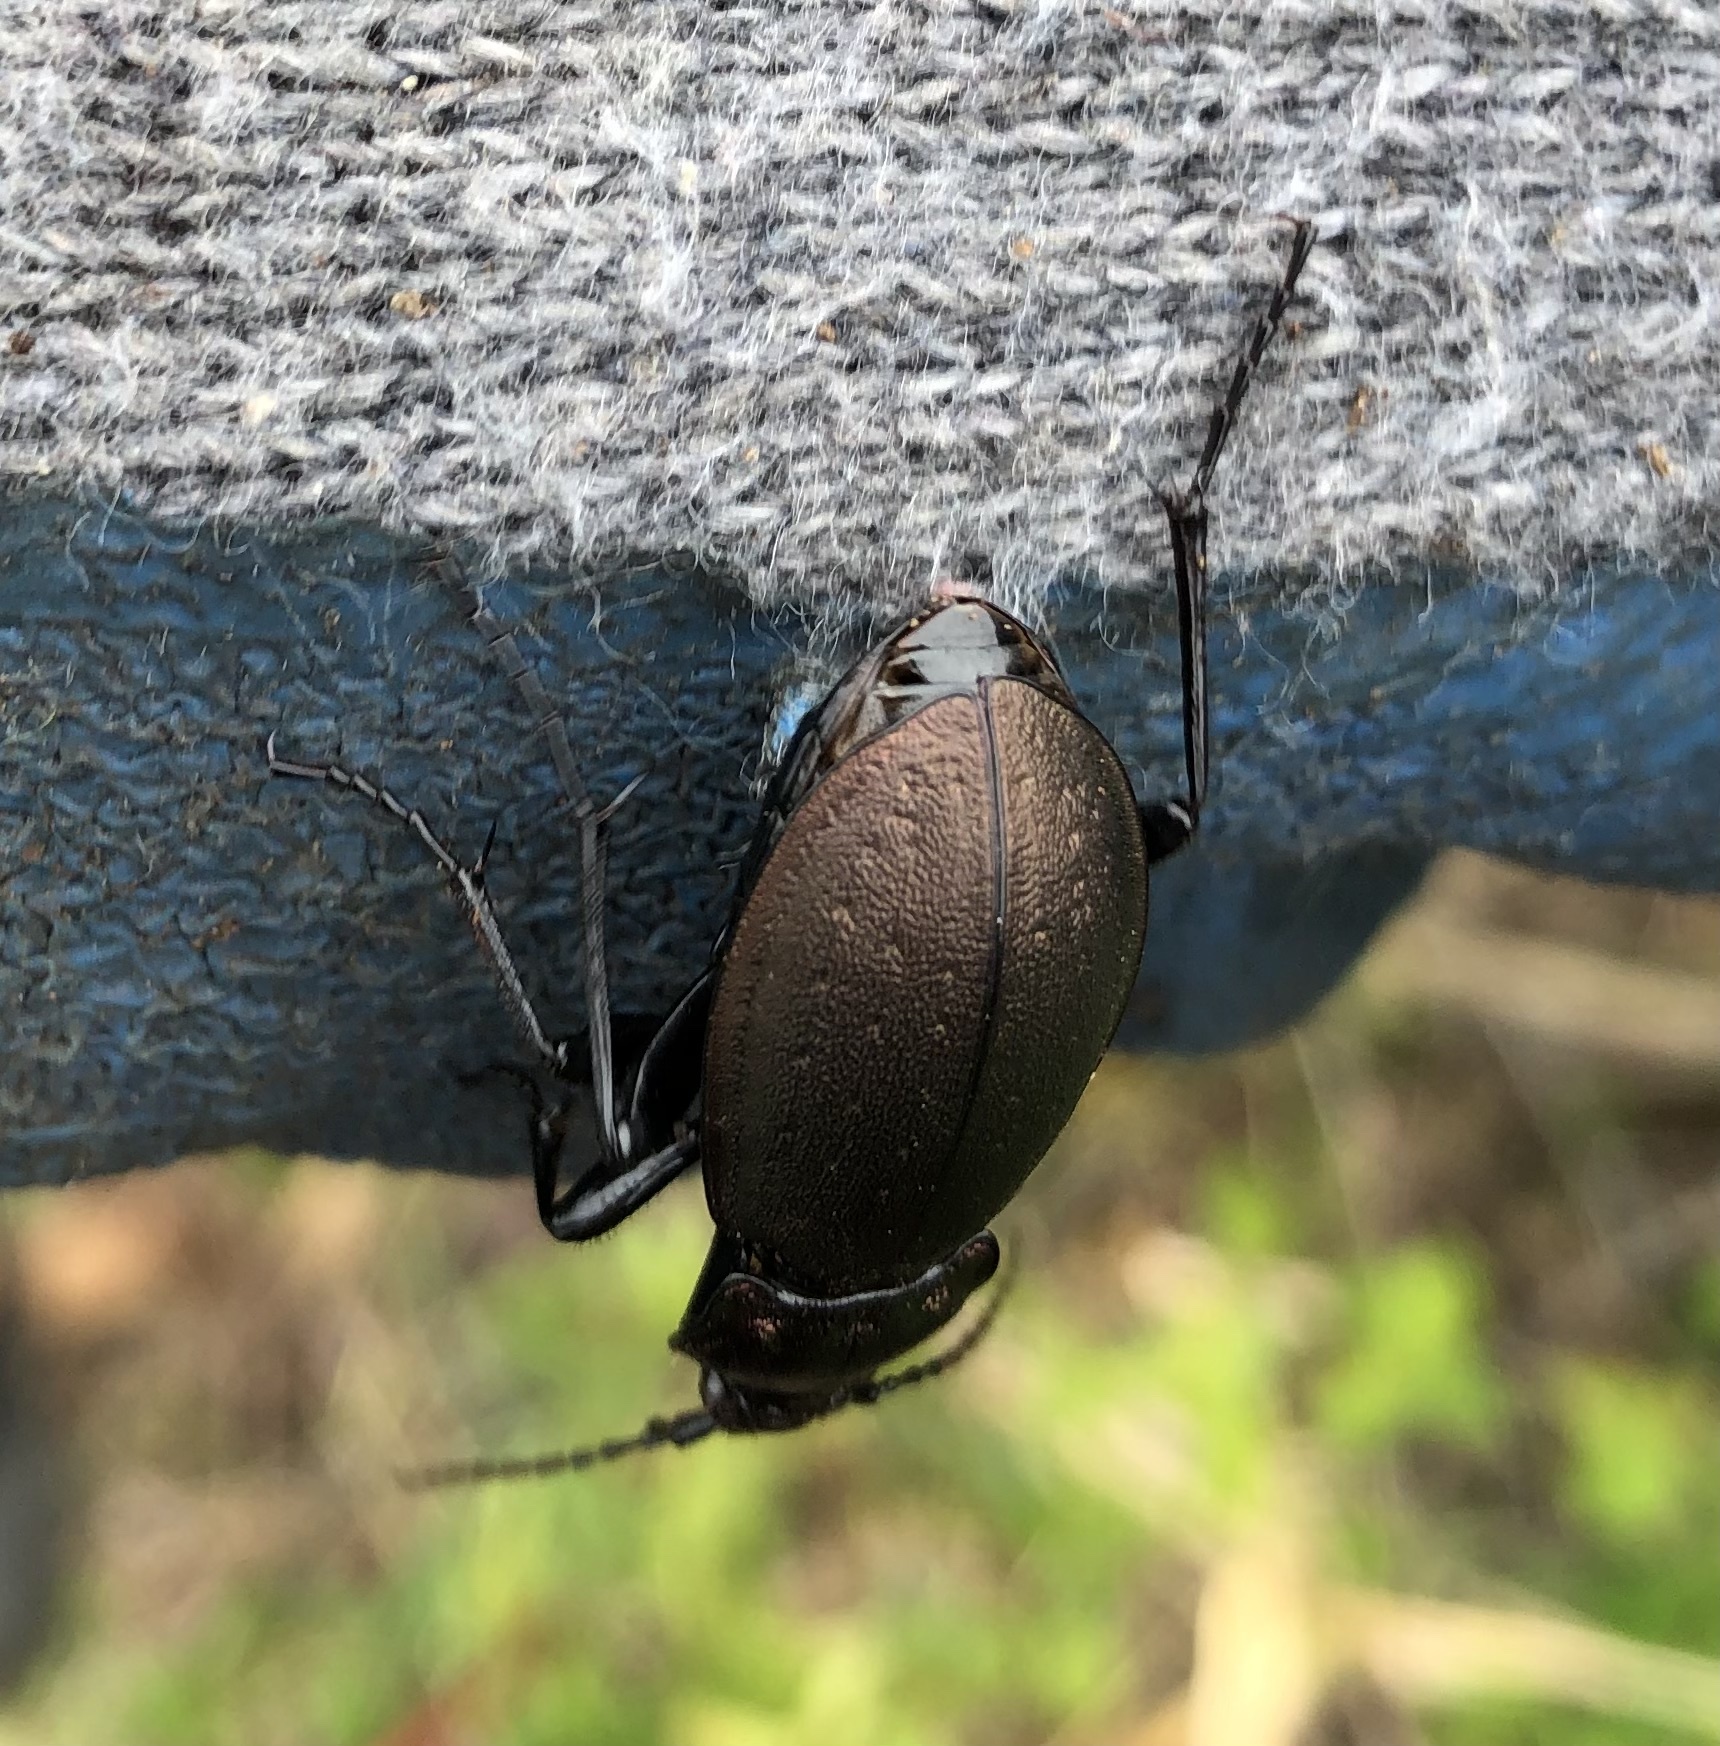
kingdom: Animalia
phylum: Arthropoda
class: Insecta
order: Coleoptera
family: Carabidae
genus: Carabus
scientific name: Carabus nemoralis
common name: European ground beetle
